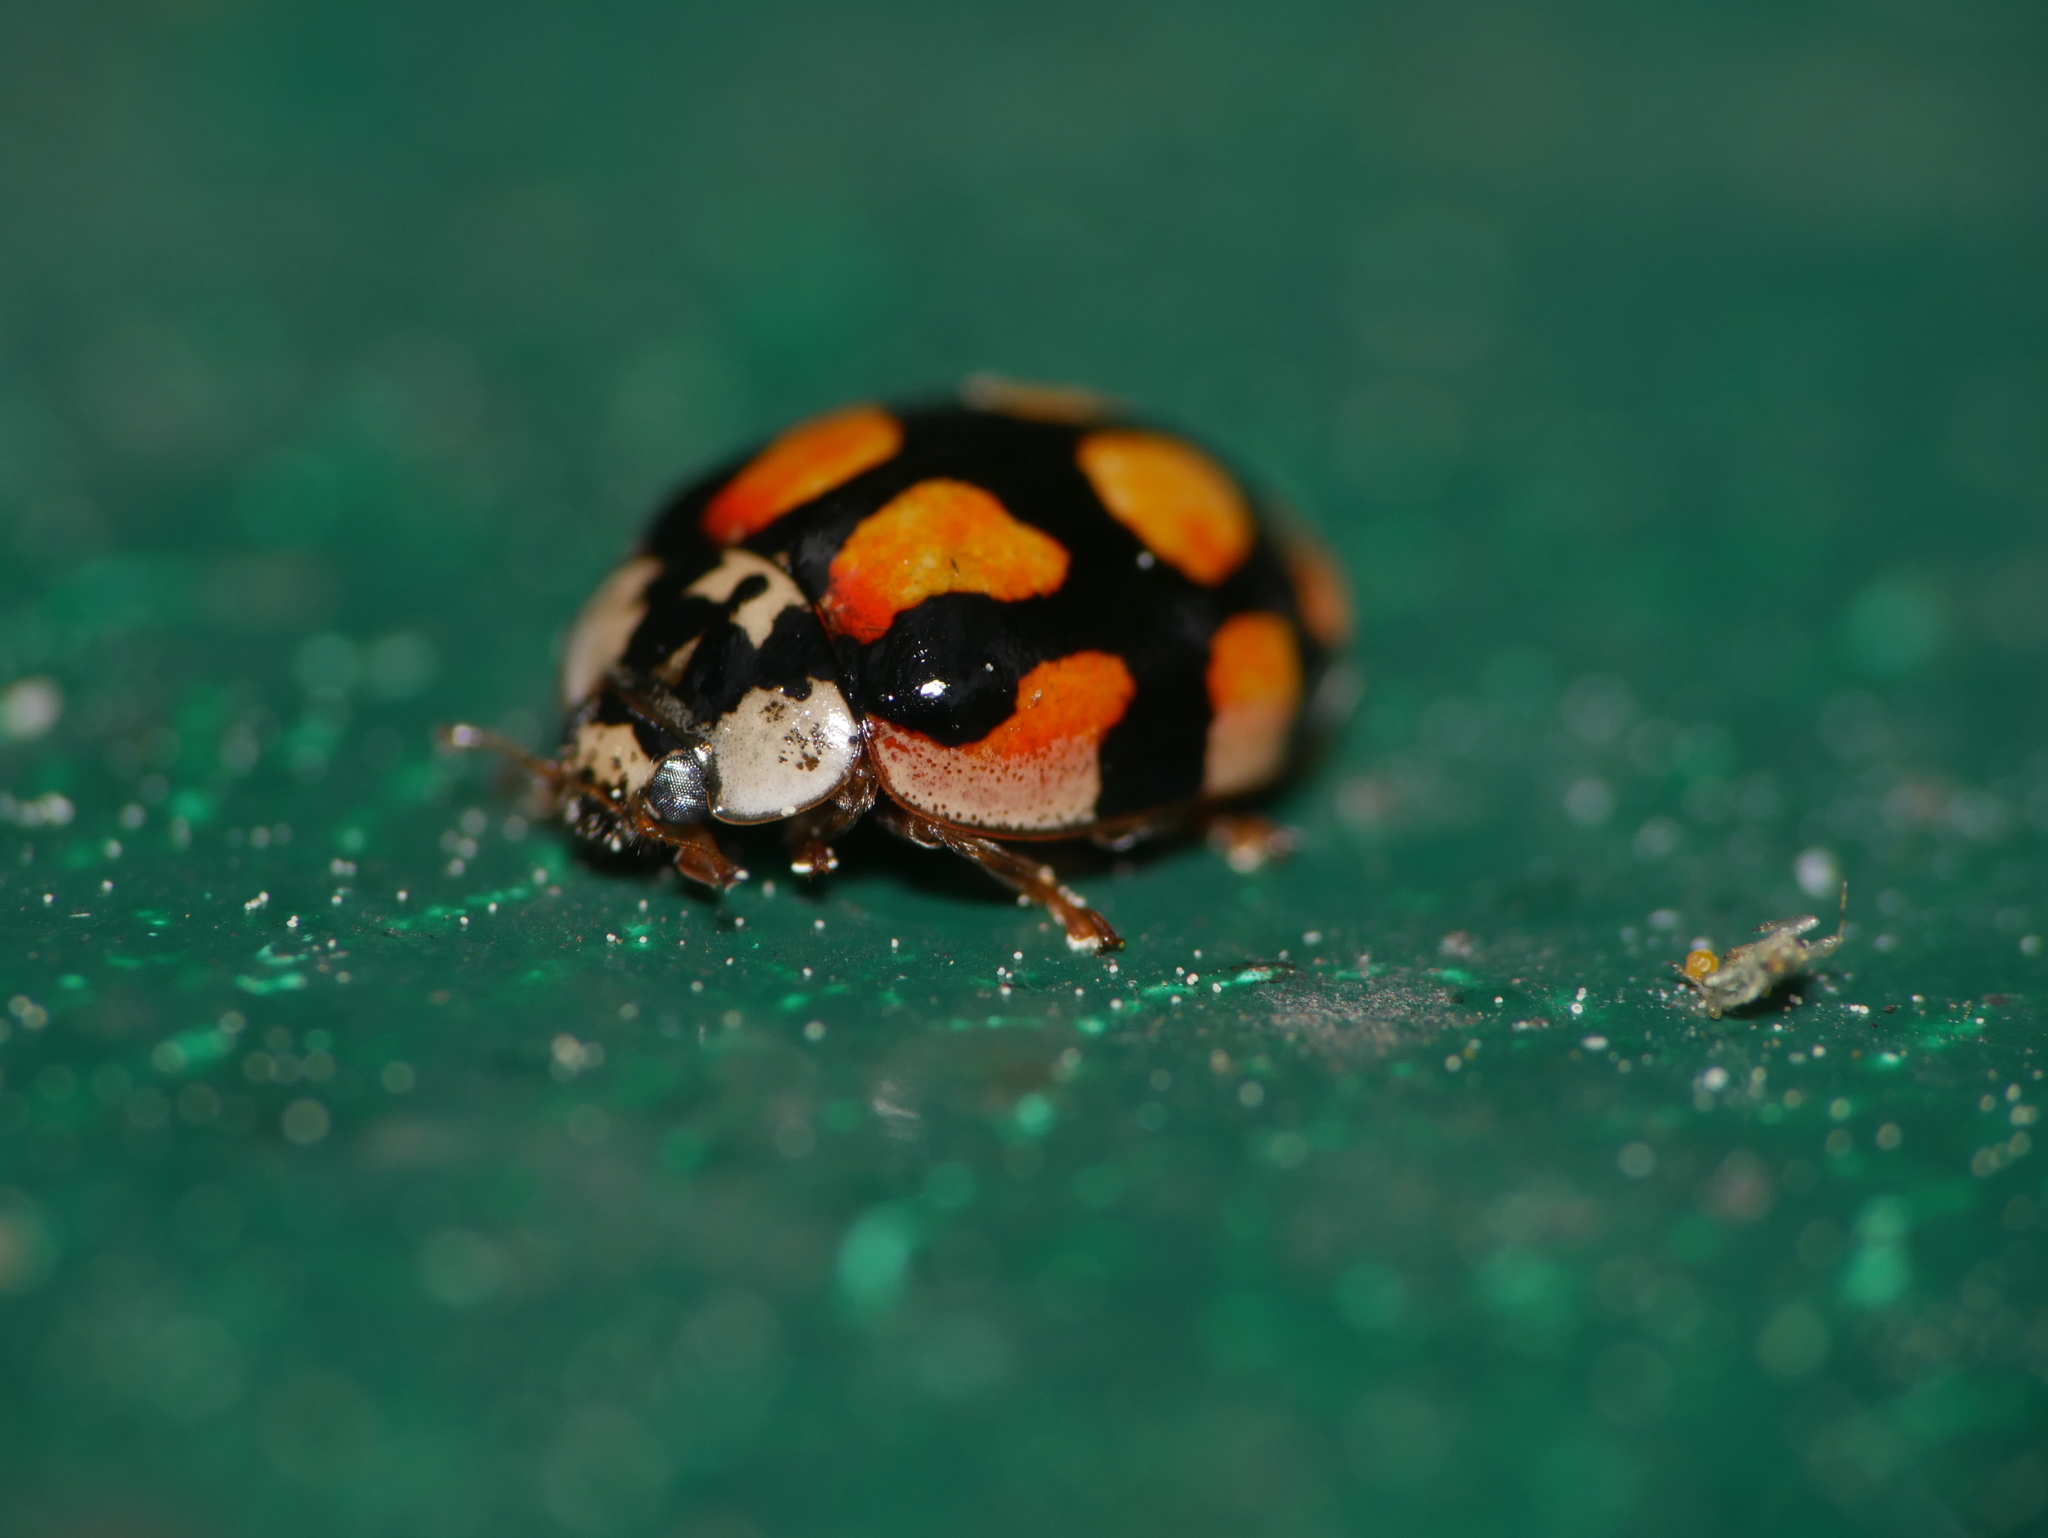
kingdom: Animalia
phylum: Arthropoda
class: Insecta
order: Coleoptera
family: Coccinellidae
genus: Adalia
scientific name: Adalia decempunctata
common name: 10-spot ladybird
